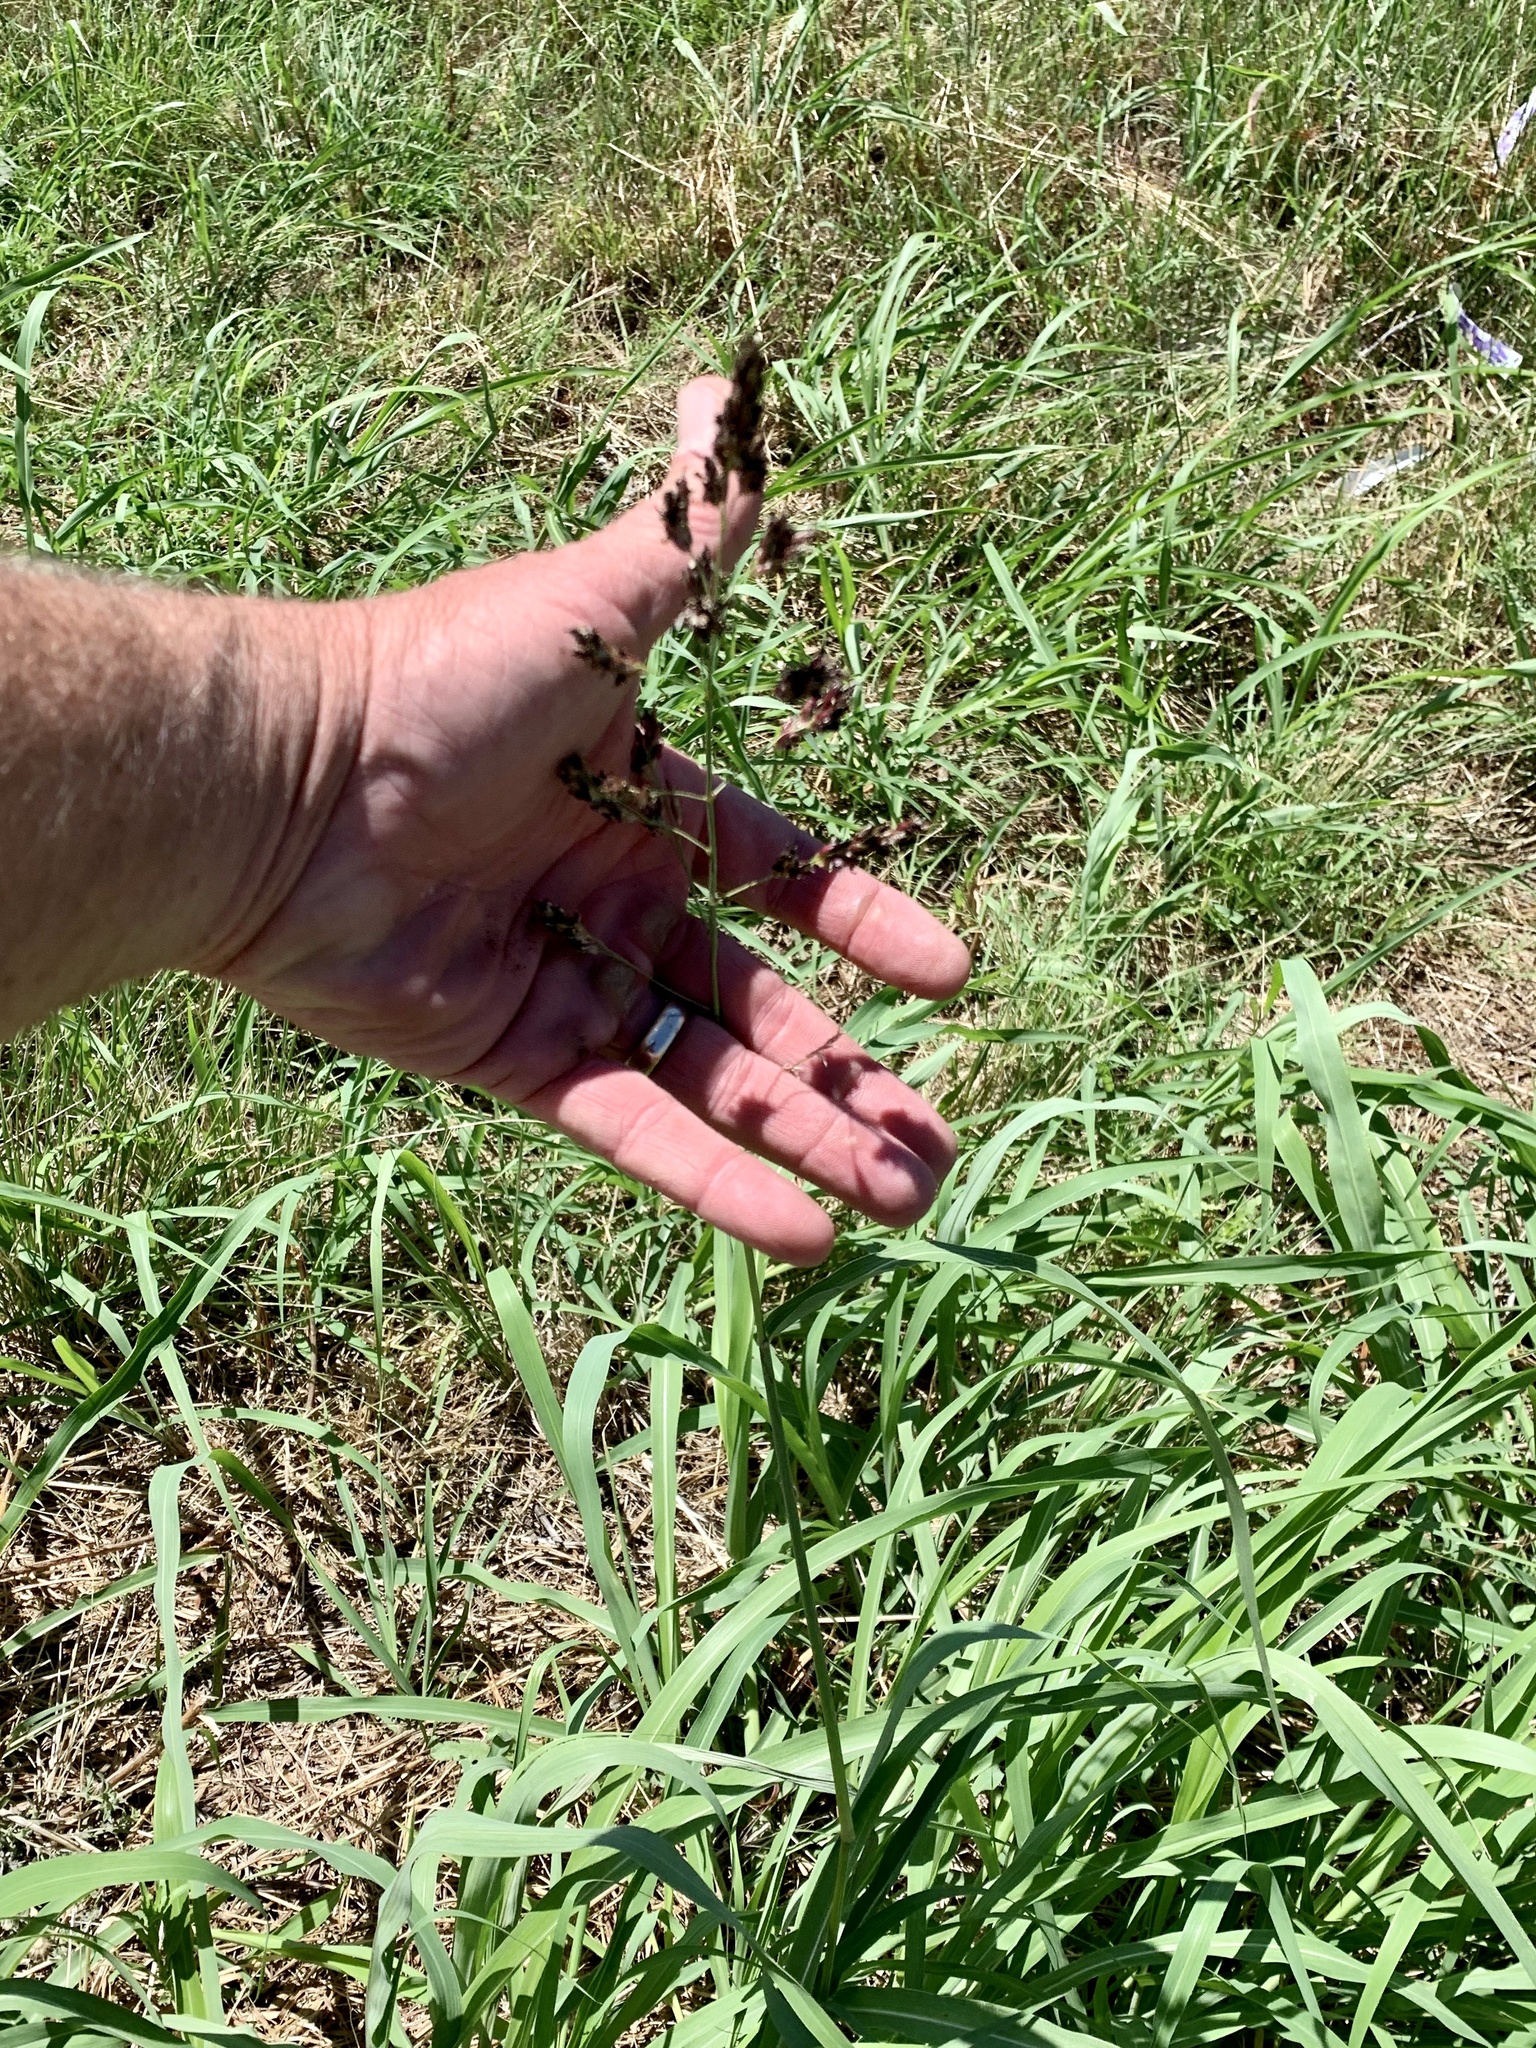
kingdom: Plantae
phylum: Tracheophyta
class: Liliopsida
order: Poales
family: Poaceae
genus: Sorghum
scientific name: Sorghum halepense
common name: Johnson-grass
